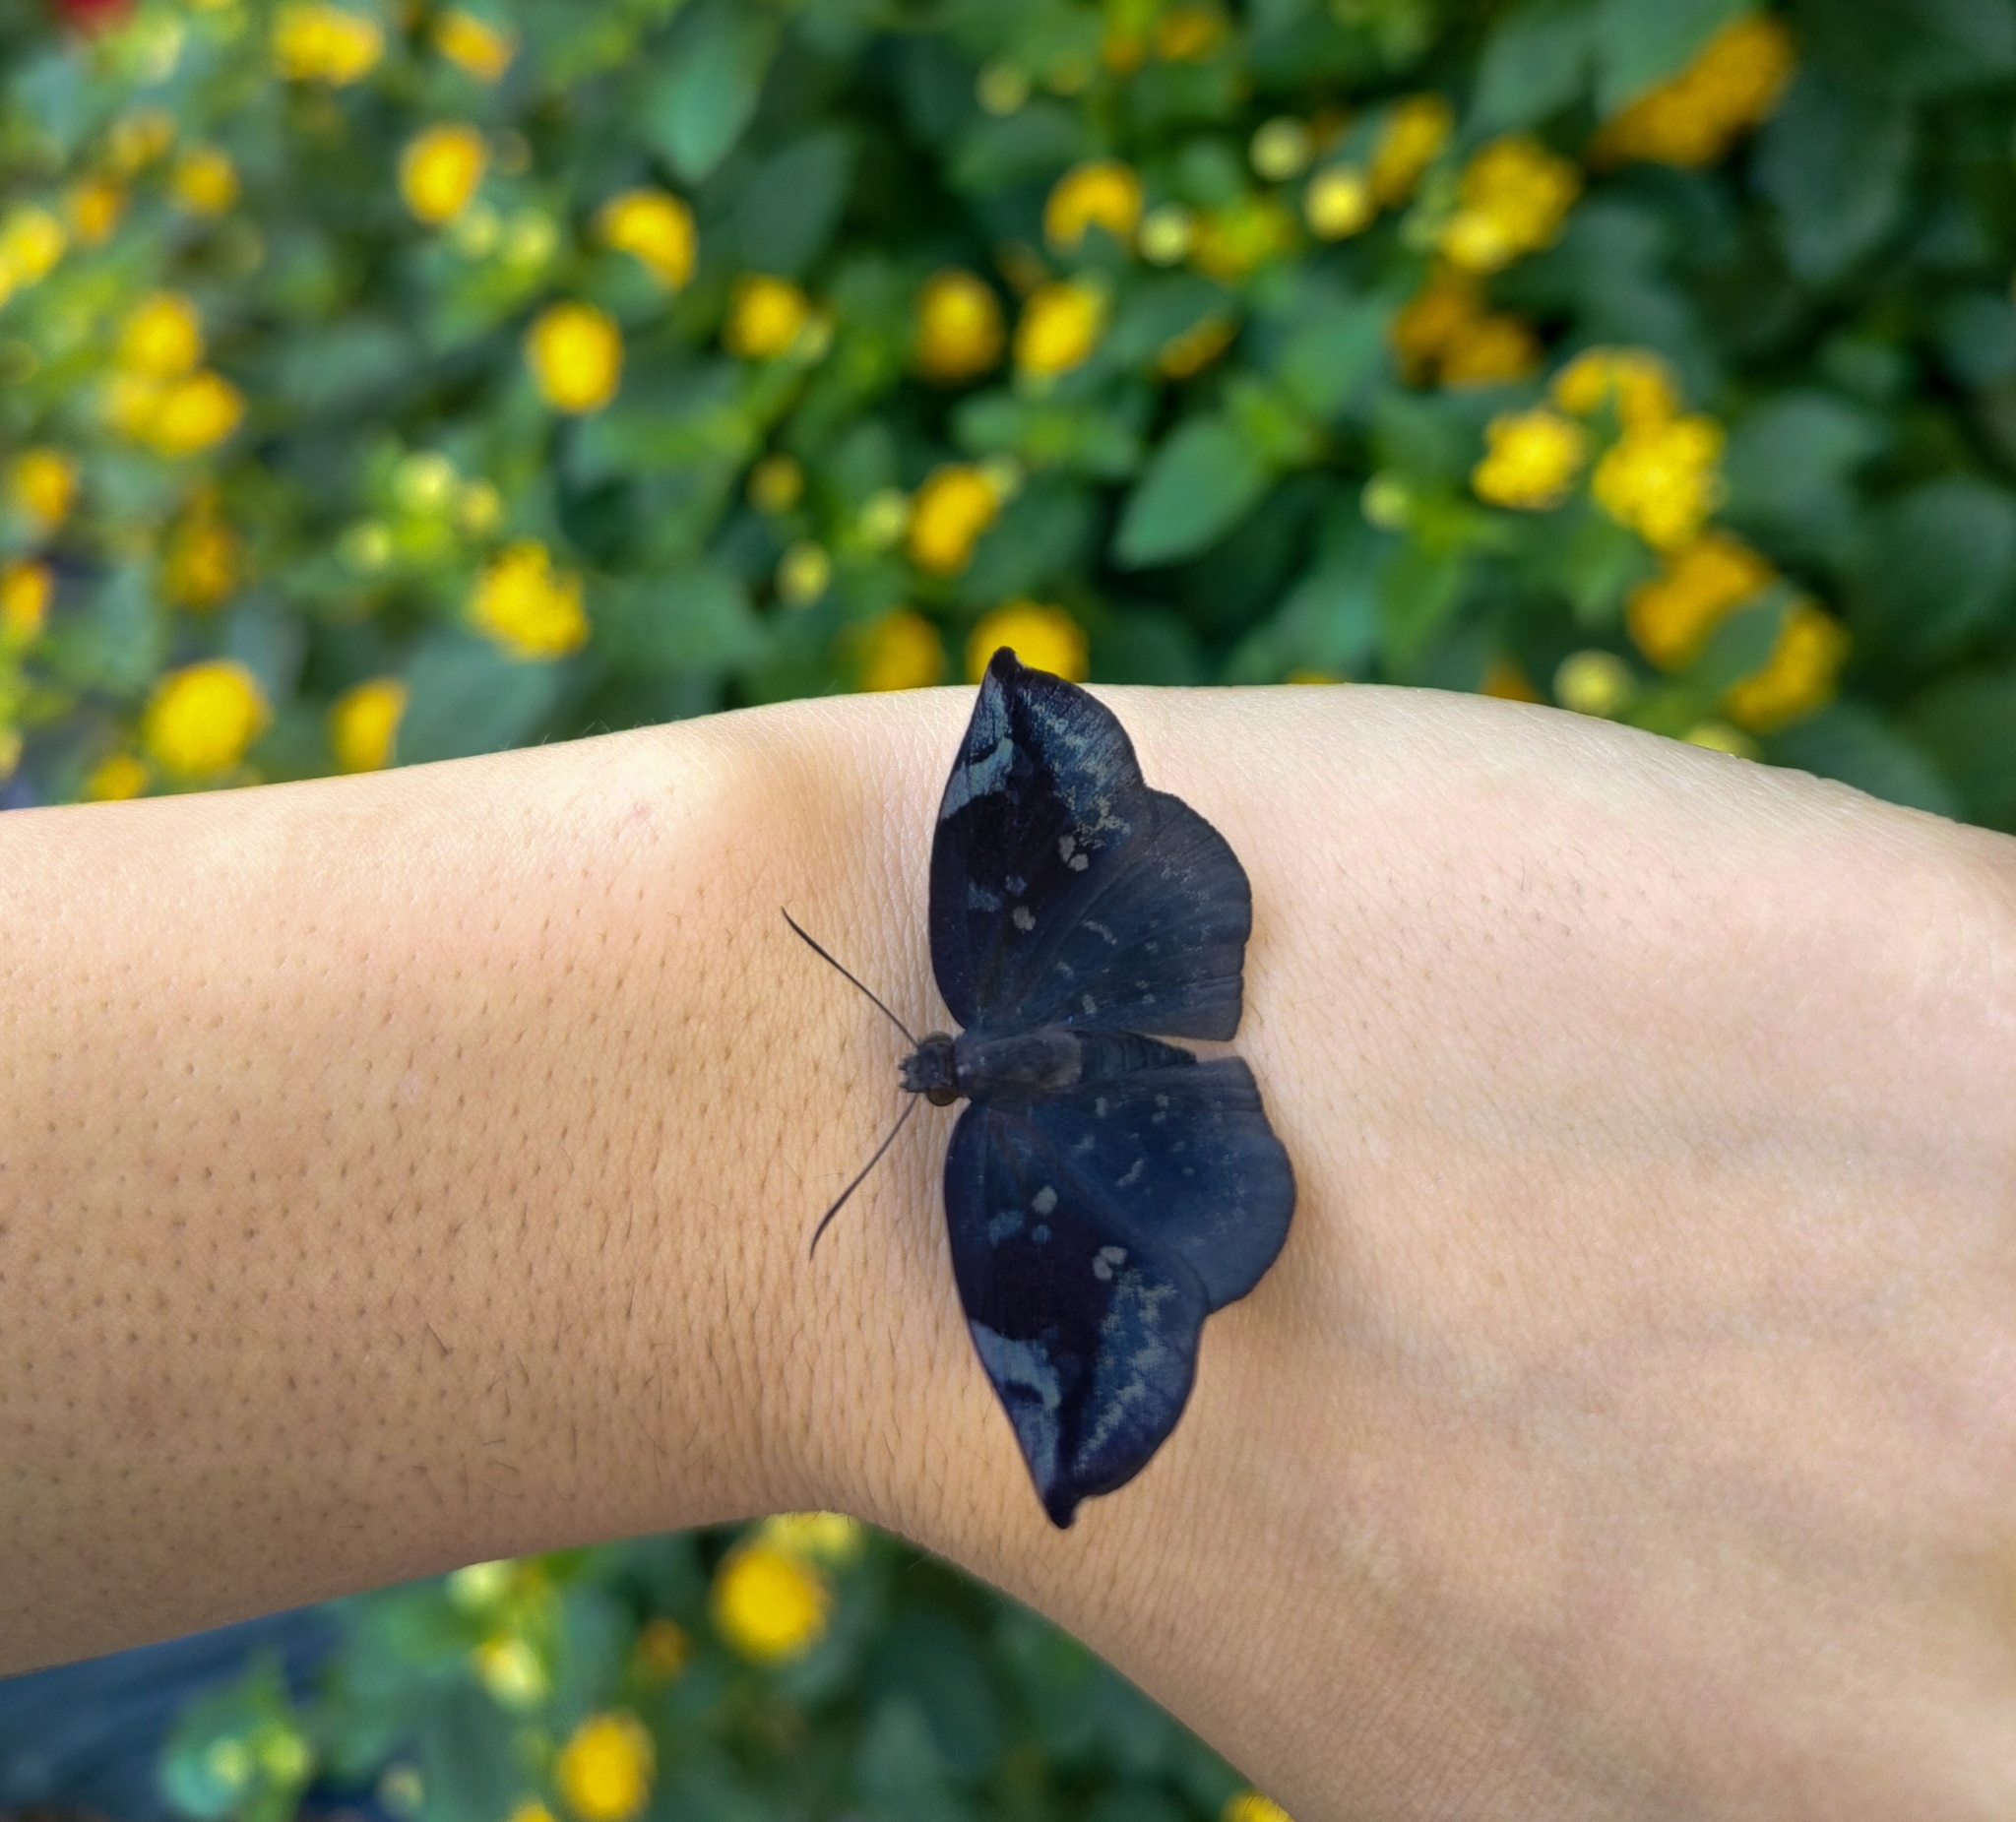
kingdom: Animalia
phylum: Arthropoda
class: Insecta
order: Lepidoptera
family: Hesperiidae
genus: Achlyodes
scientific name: Achlyodes thraso
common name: Sickle-winged skipper
